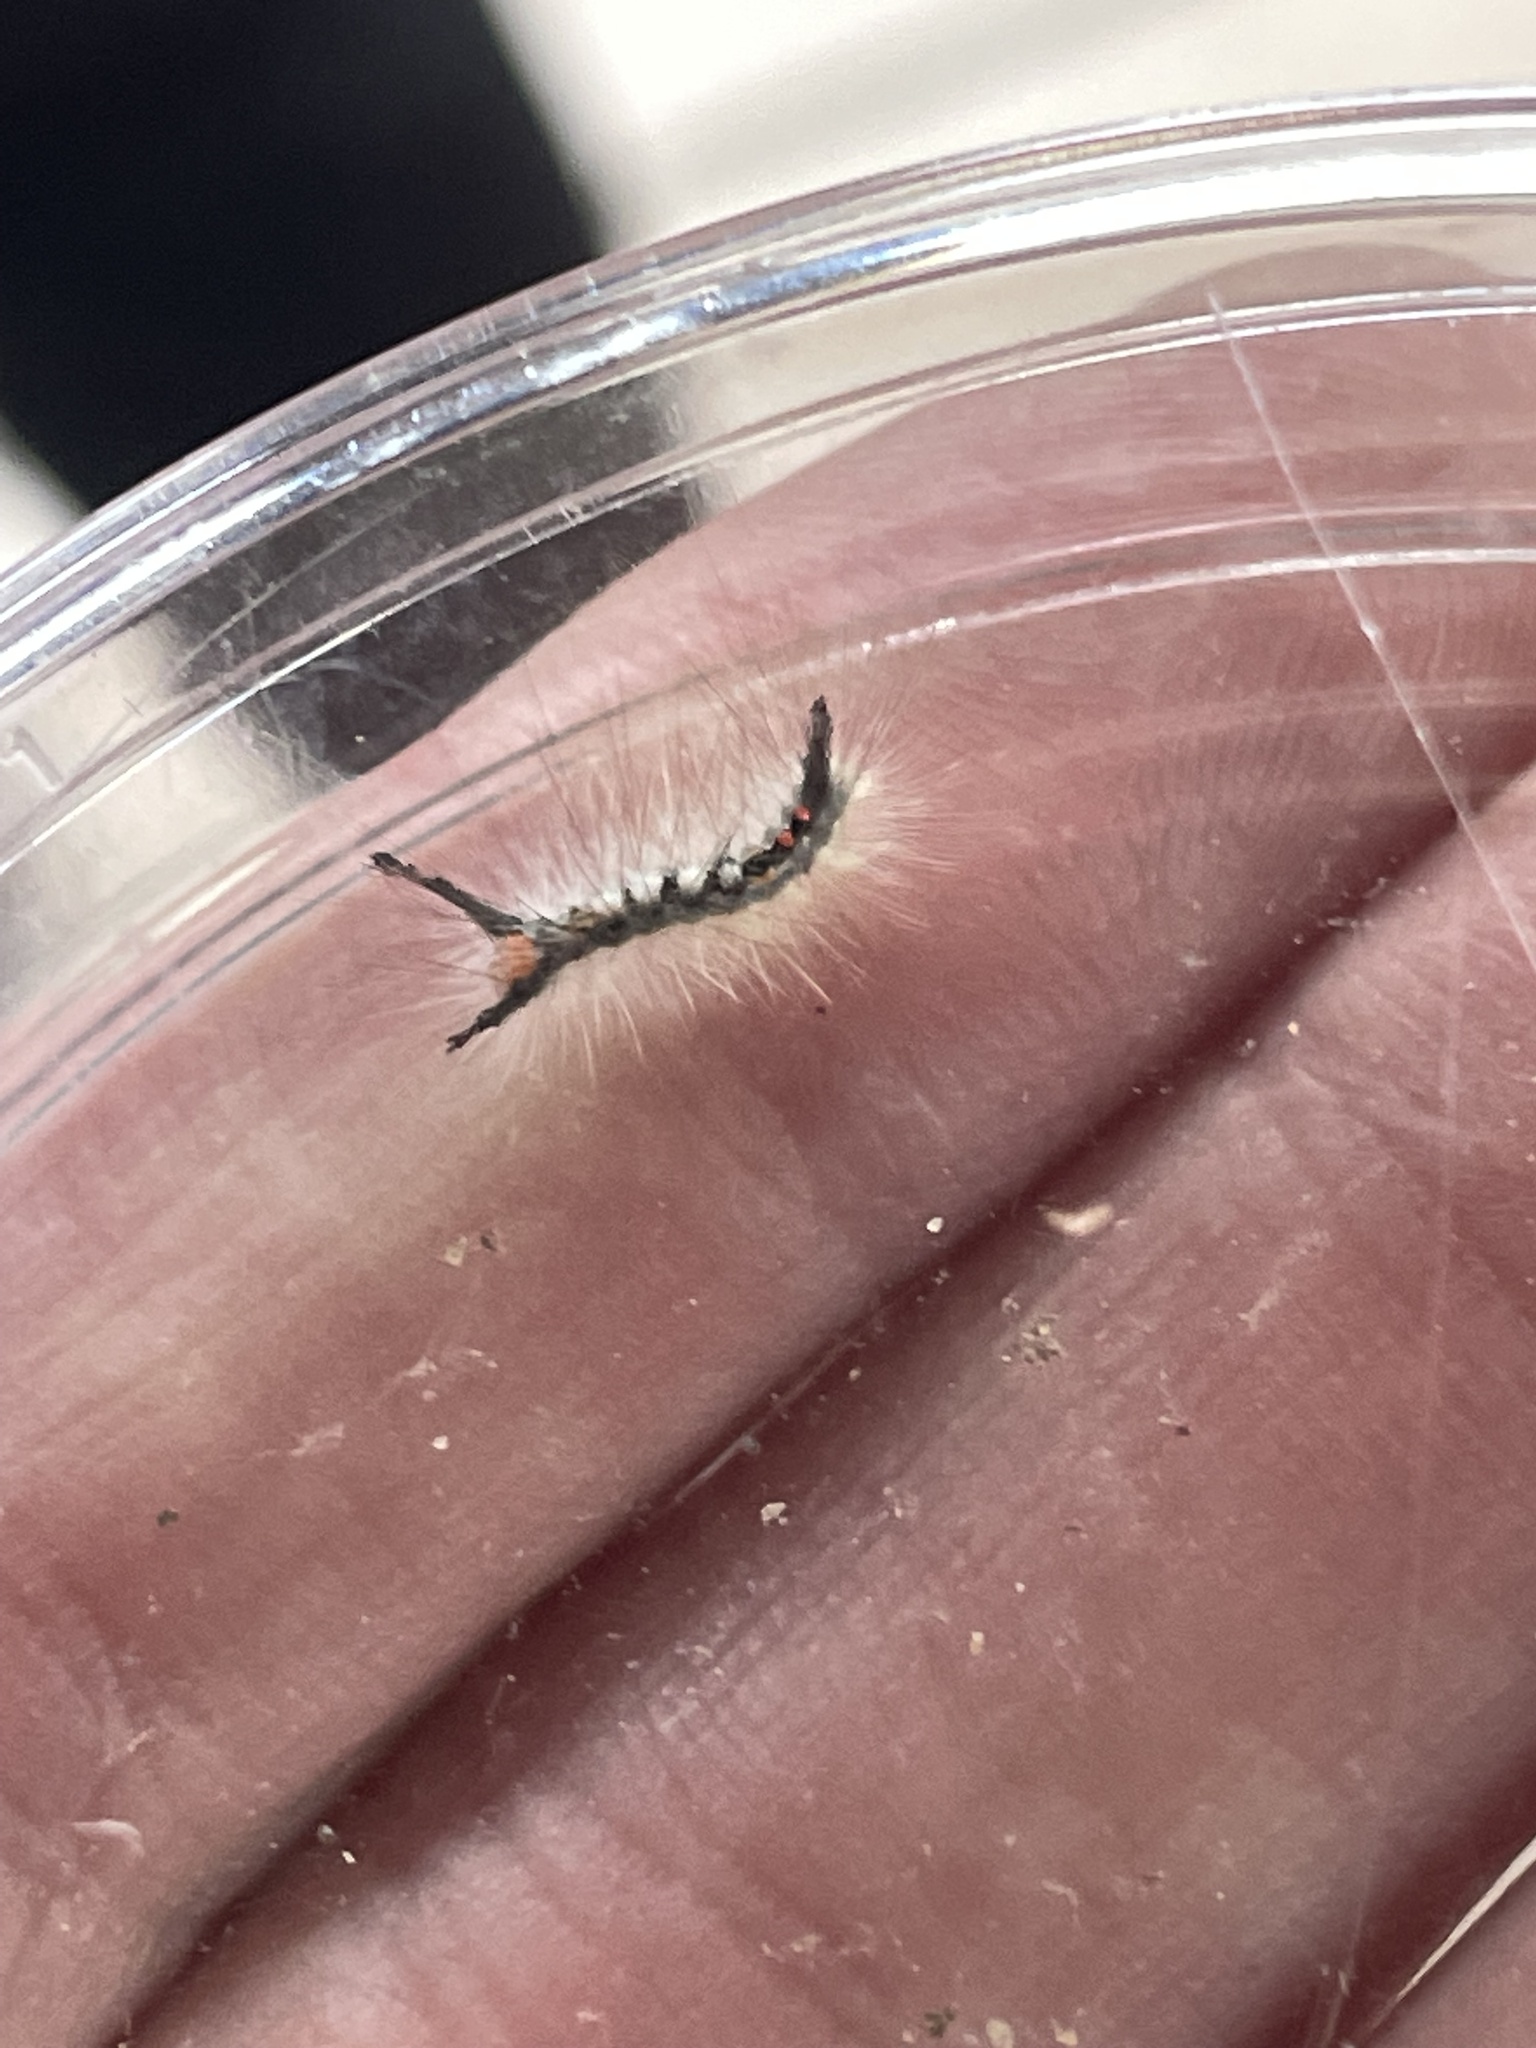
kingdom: Animalia
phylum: Arthropoda
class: Insecta
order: Lepidoptera
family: Erebidae
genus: Orgyia
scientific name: Orgyia leucostigma
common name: White-marked tussock moth
